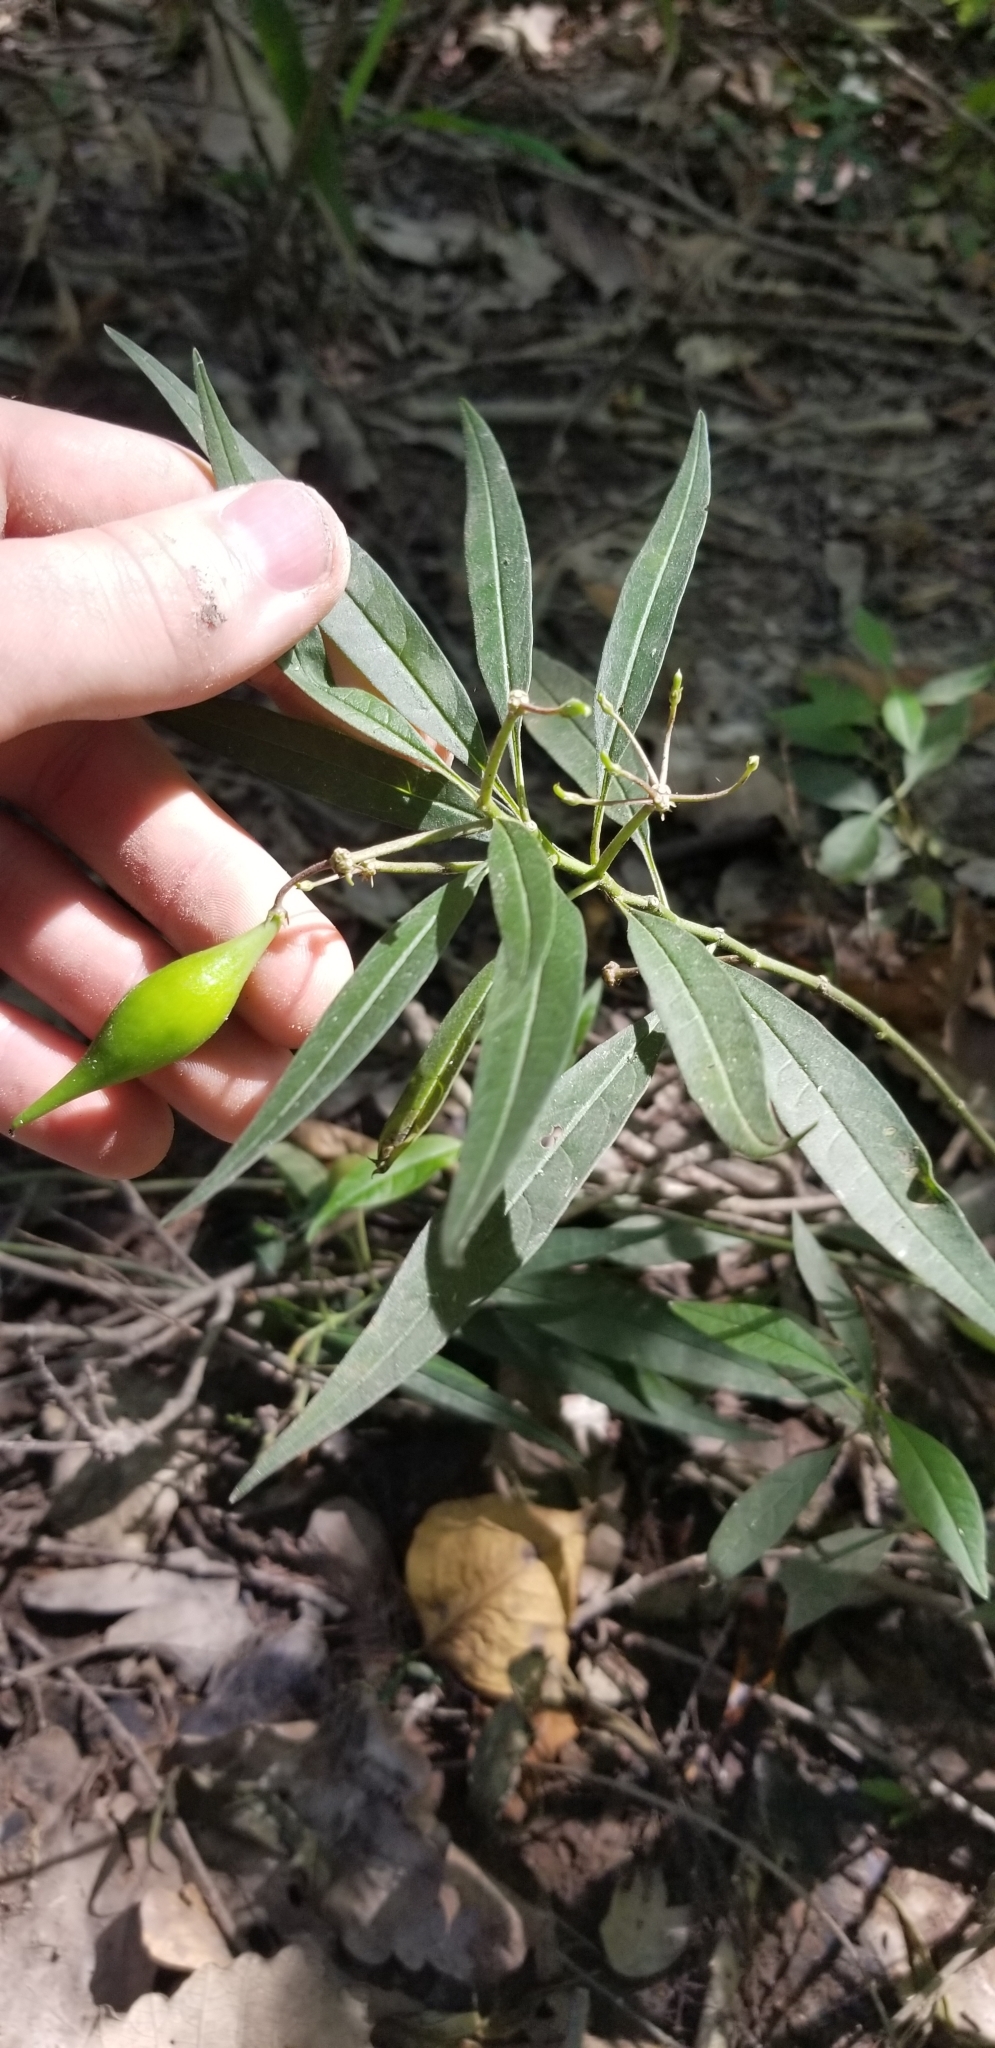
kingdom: Plantae
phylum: Tracheophyta
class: Magnoliopsida
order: Gentianales
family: Apocynaceae
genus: Asclepias
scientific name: Asclepias perennis
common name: Smooth-seed milkweed
